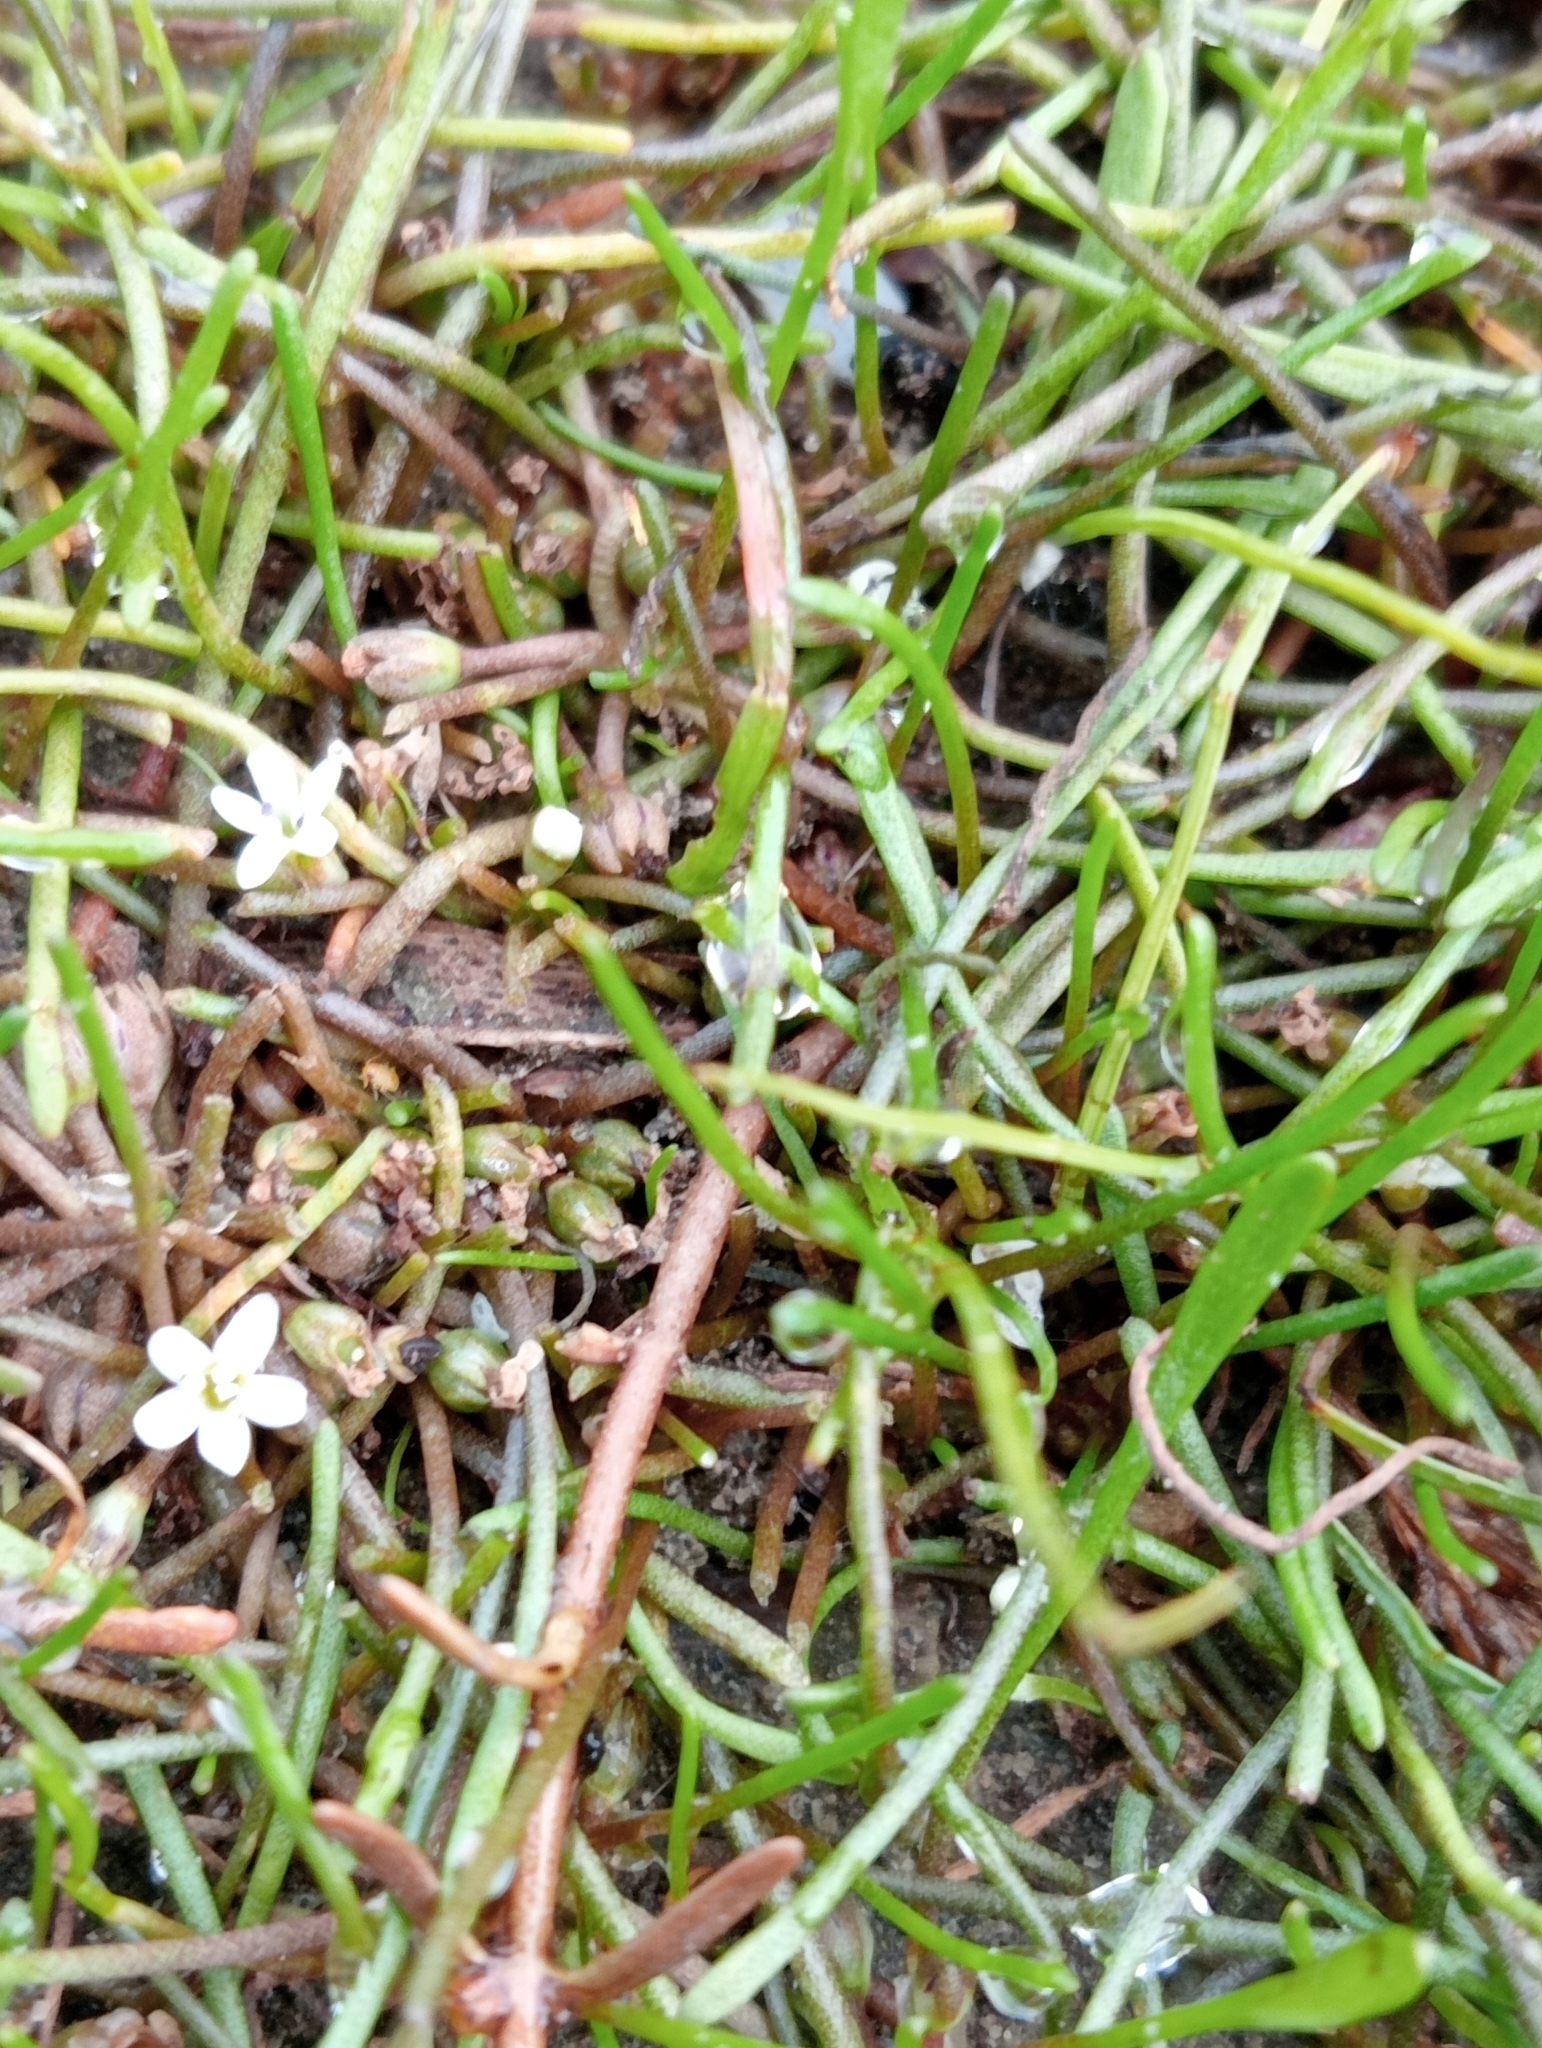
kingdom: Plantae
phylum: Tracheophyta
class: Magnoliopsida
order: Lamiales
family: Scrophulariaceae
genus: Limosella
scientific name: Limosella australis
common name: Welsh mudwort
